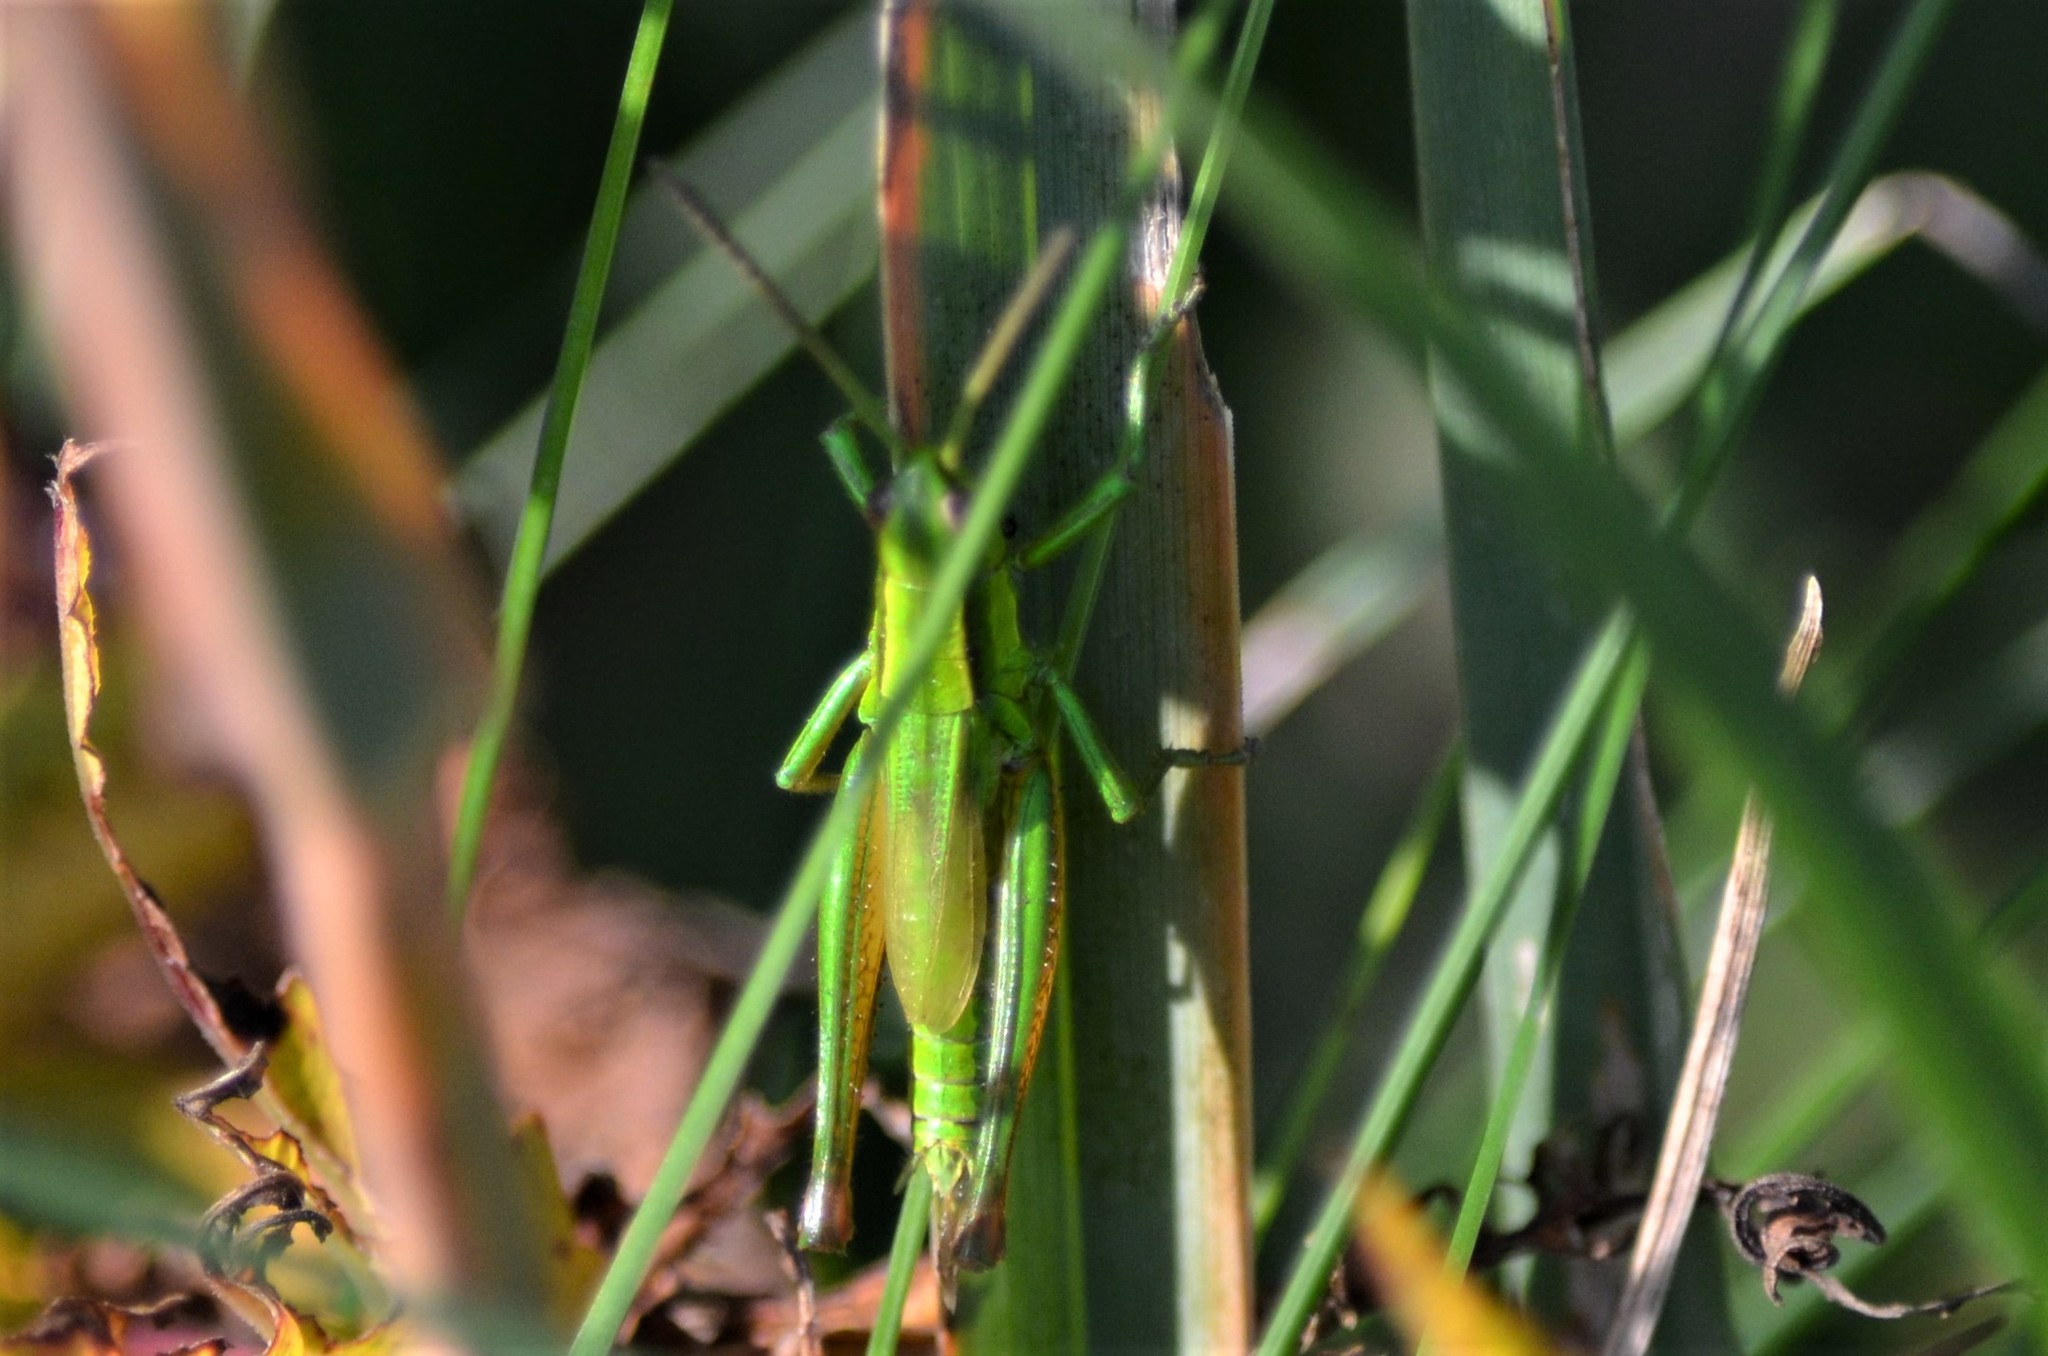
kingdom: Animalia
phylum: Arthropoda
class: Insecta
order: Orthoptera
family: Acrididae
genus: Euthystira
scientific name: Euthystira brachyptera
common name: Small gold grasshopper
